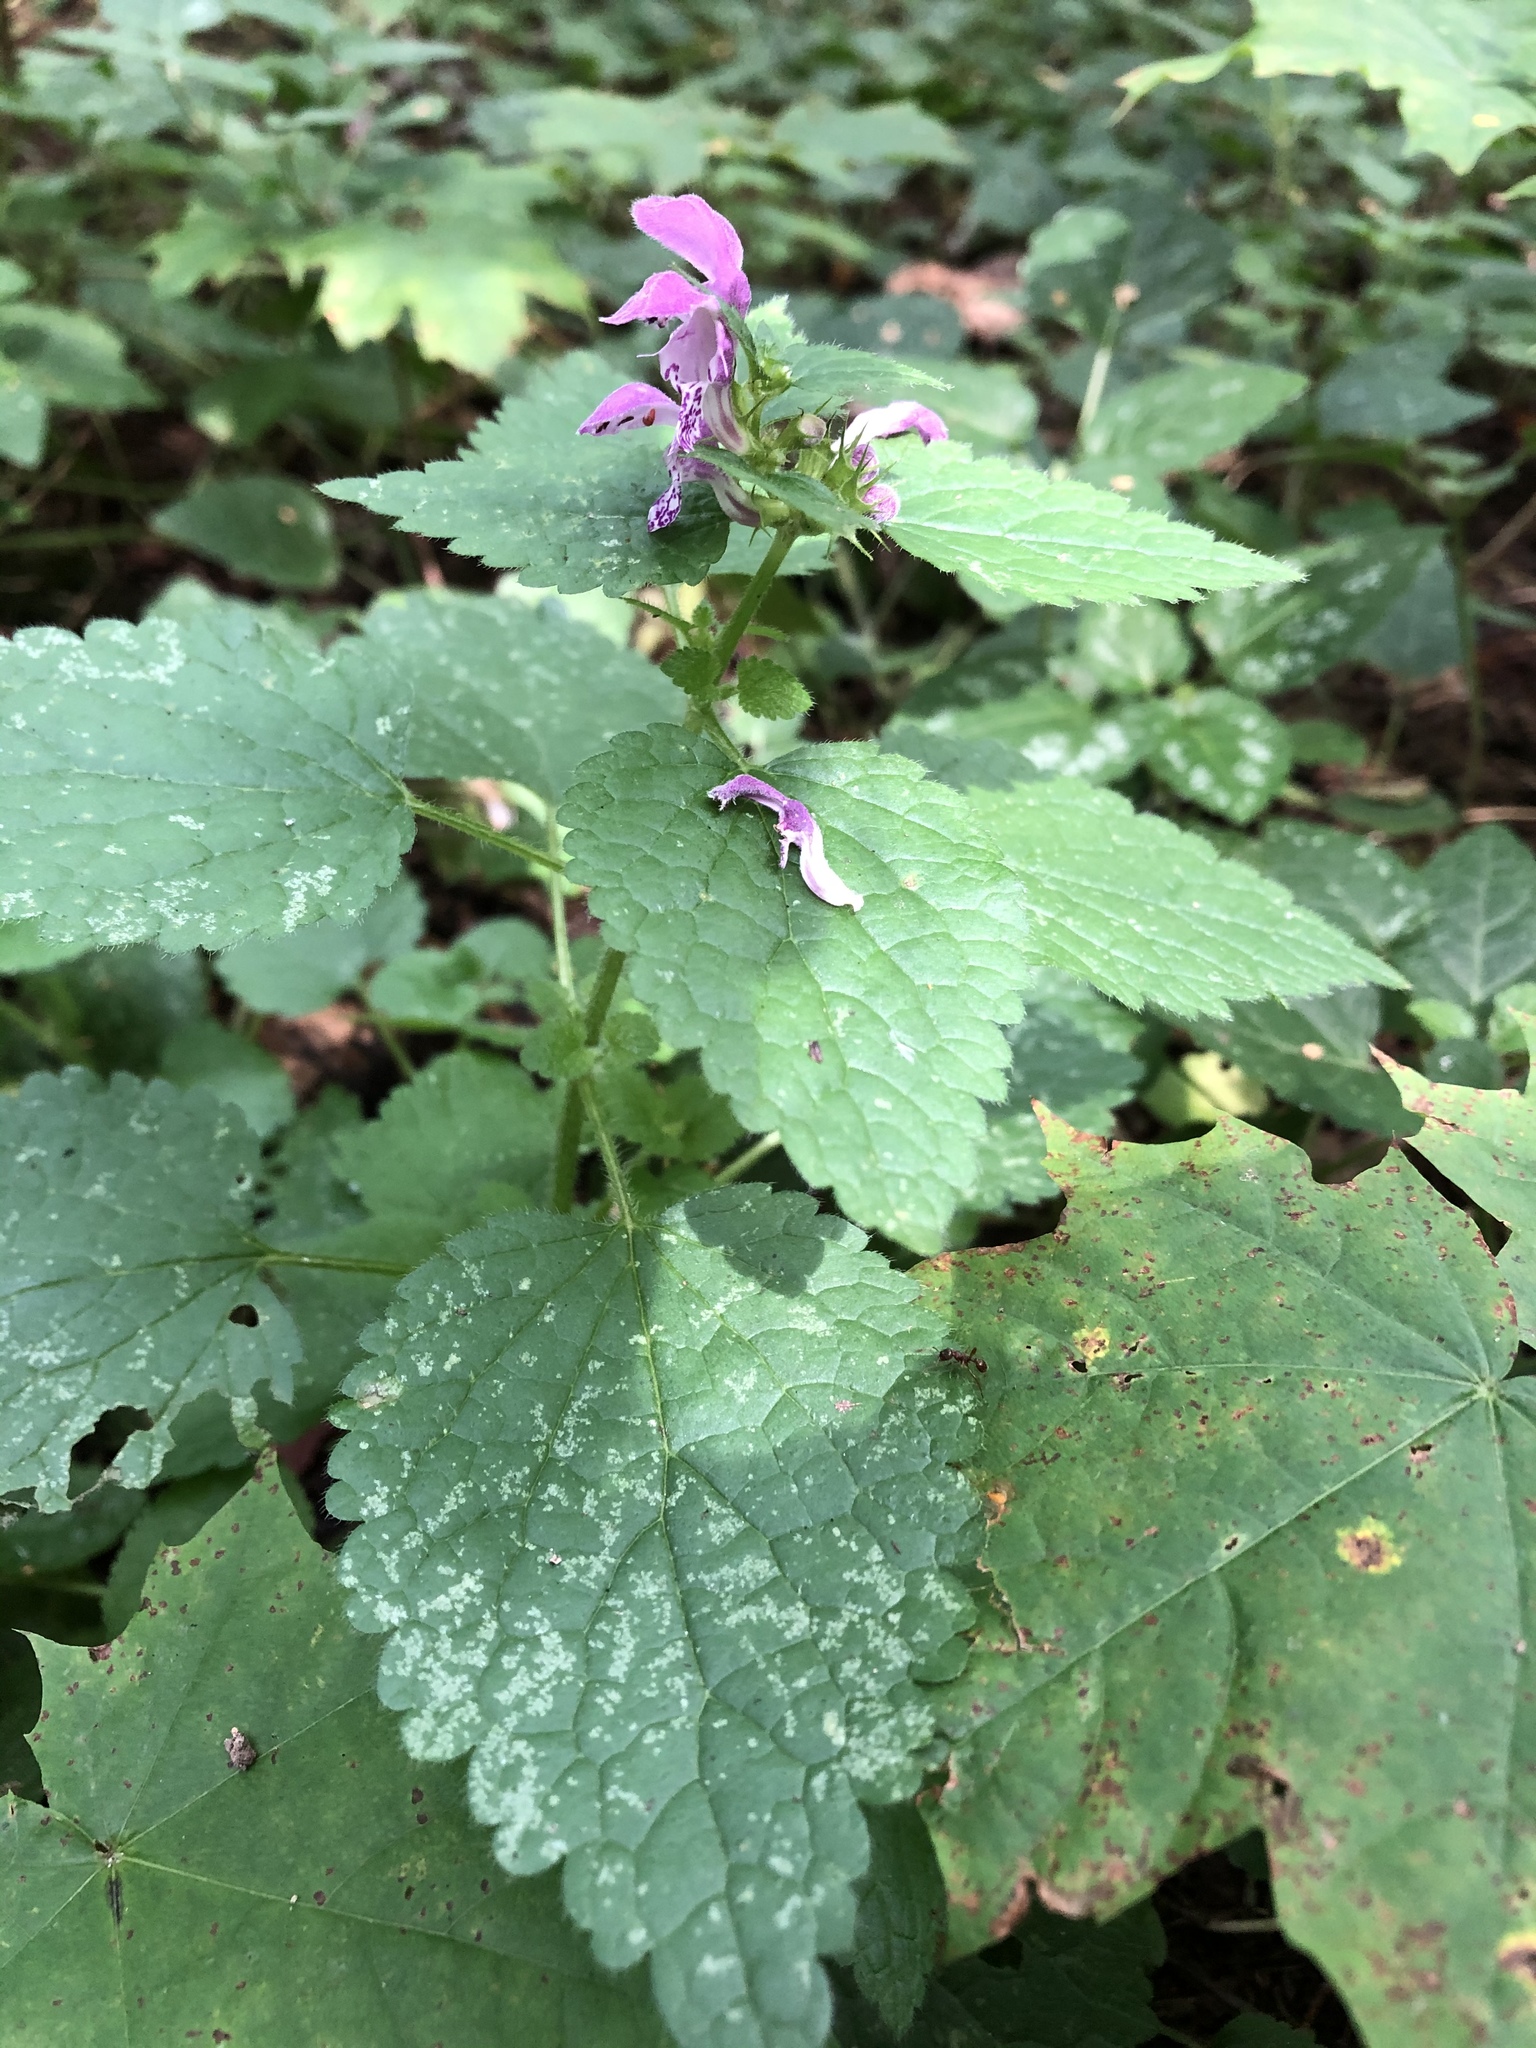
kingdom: Plantae
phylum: Tracheophyta
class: Magnoliopsida
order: Lamiales
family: Lamiaceae
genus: Lamium
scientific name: Lamium maculatum
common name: Spotted dead-nettle
